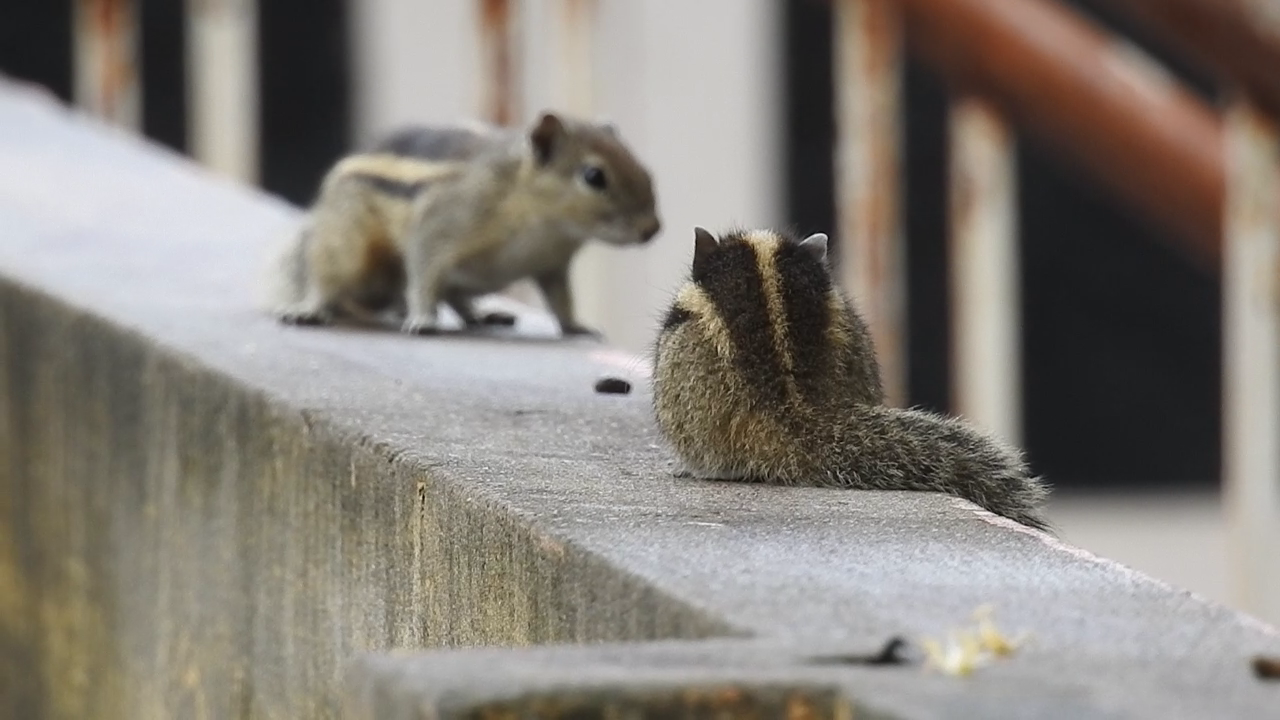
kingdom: Animalia
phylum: Chordata
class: Mammalia
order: Rodentia
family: Sciuridae
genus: Funambulus
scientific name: Funambulus palmarum
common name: Indian palm squirrel
